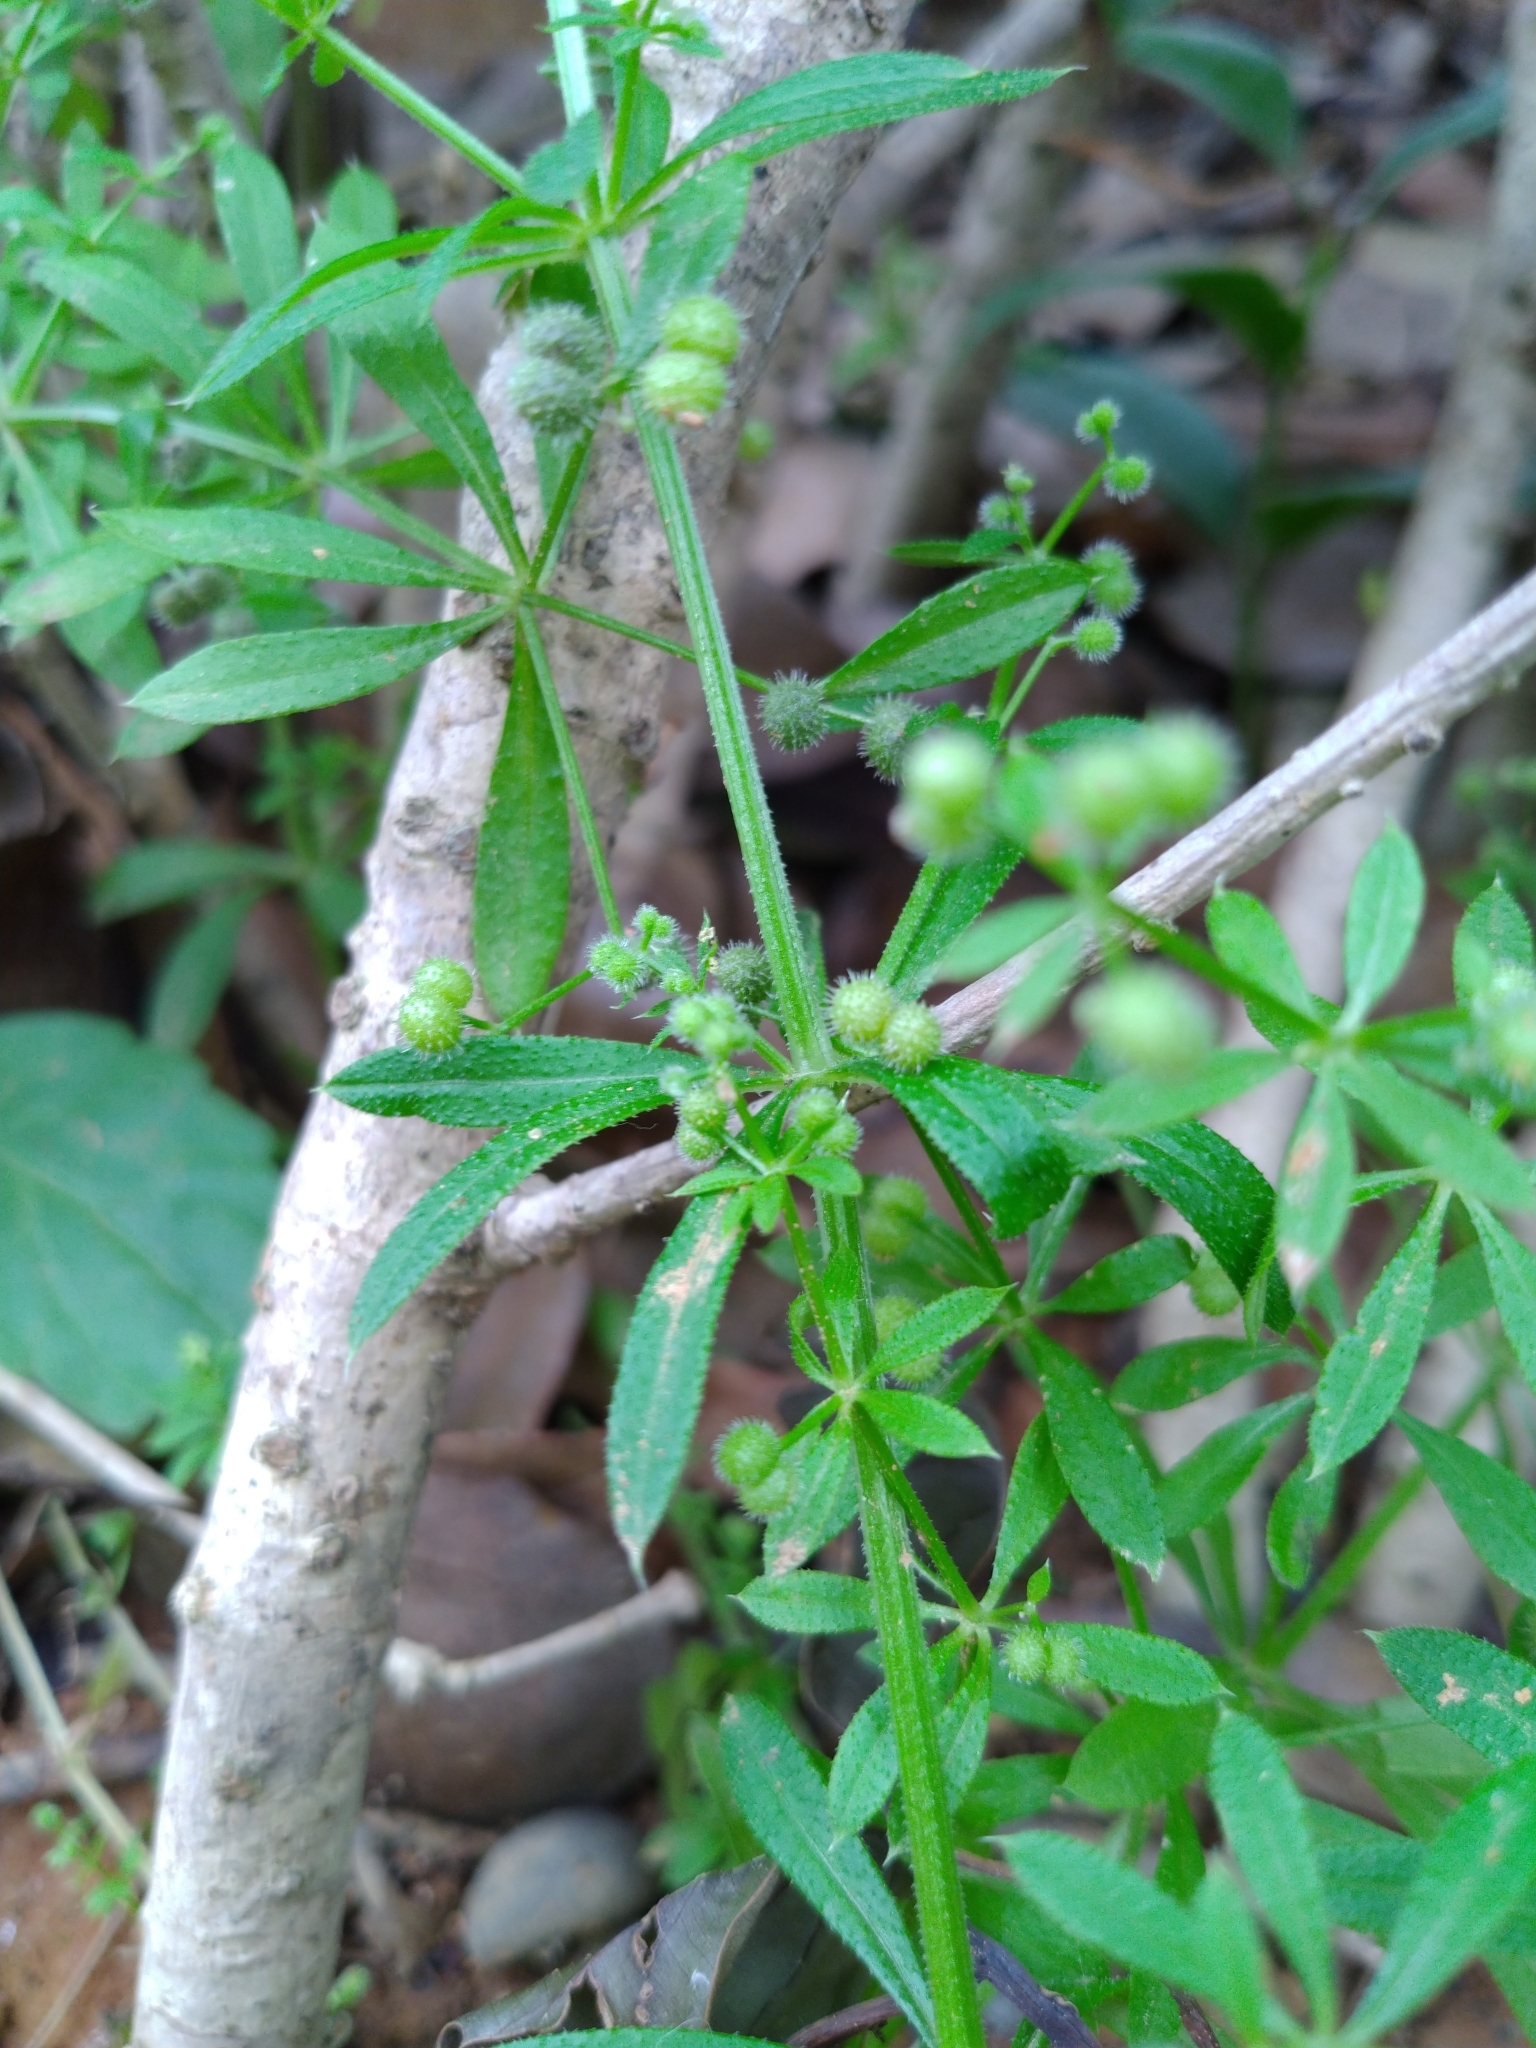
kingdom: Plantae
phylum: Tracheophyta
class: Magnoliopsida
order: Gentianales
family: Rubiaceae
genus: Galium
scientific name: Galium spurium
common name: False cleavers
